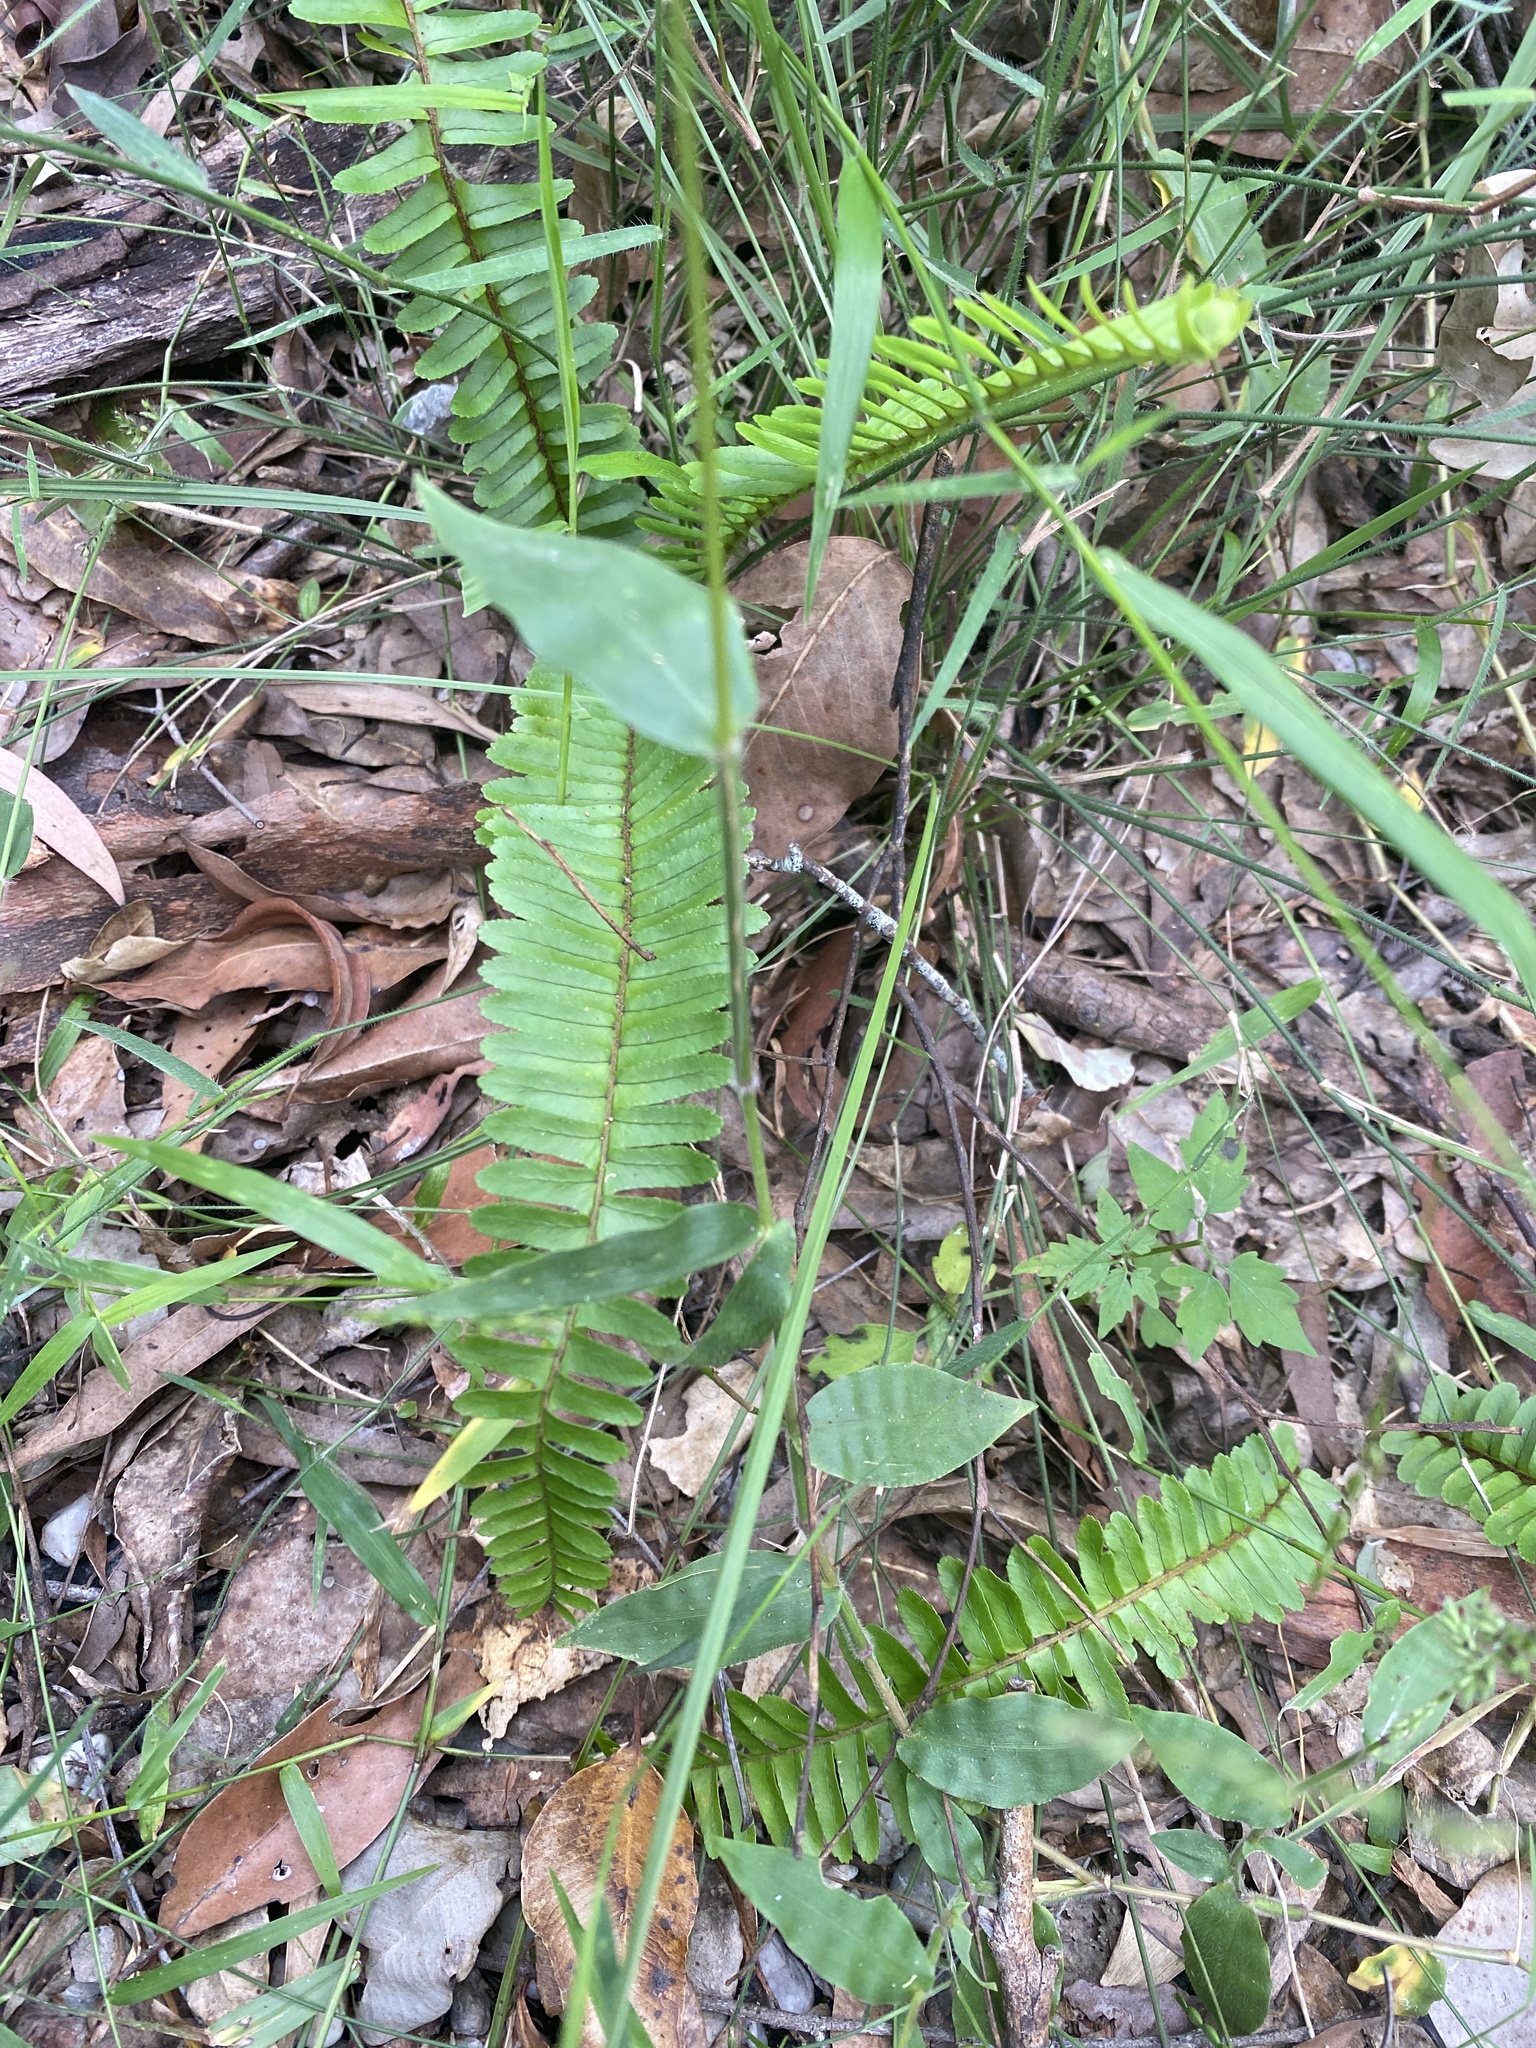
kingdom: Plantae
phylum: Tracheophyta
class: Liliopsida
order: Poales
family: Poaceae
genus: Oplismenus
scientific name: Oplismenus hirtellus
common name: Basketgrass
